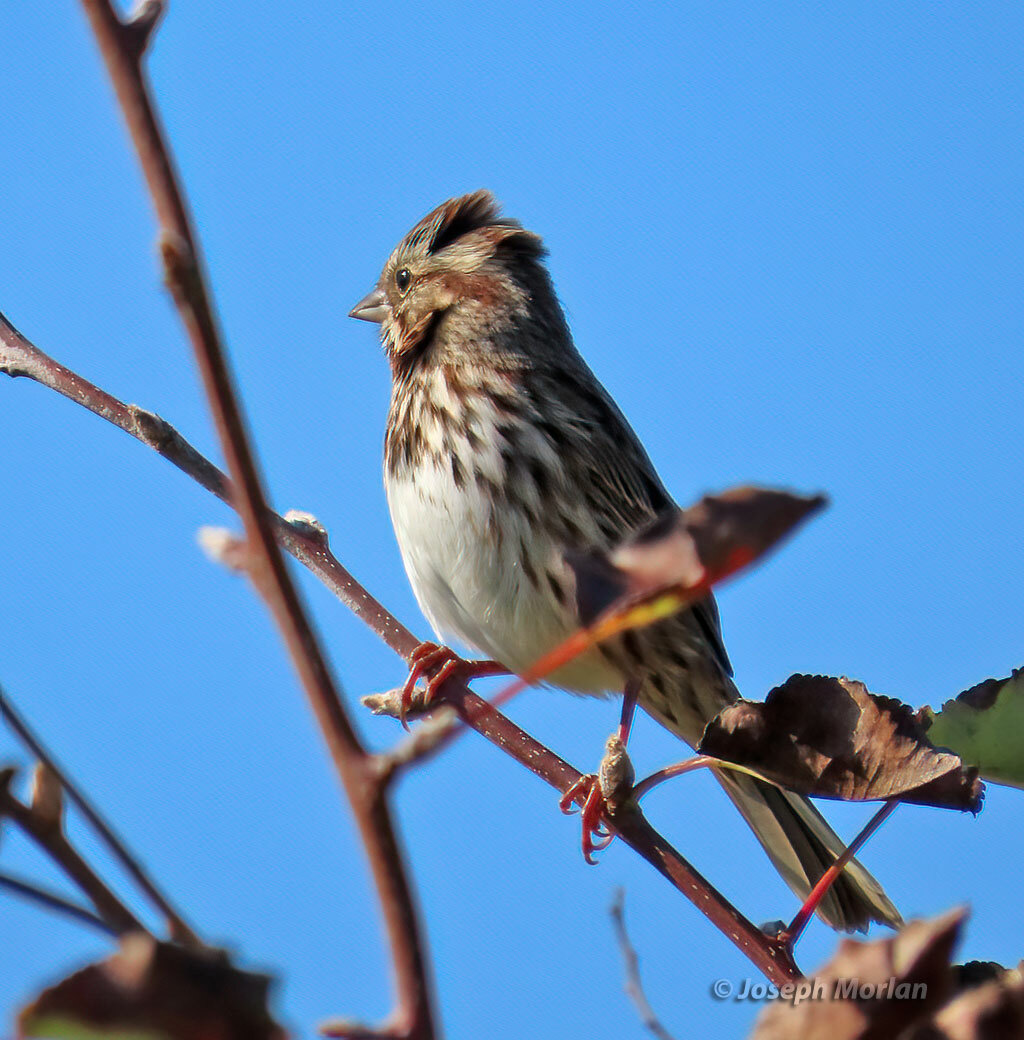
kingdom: Animalia
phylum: Chordata
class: Aves
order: Passeriformes
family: Passerellidae
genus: Melospiza
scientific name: Melospiza melodia
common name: Song sparrow
